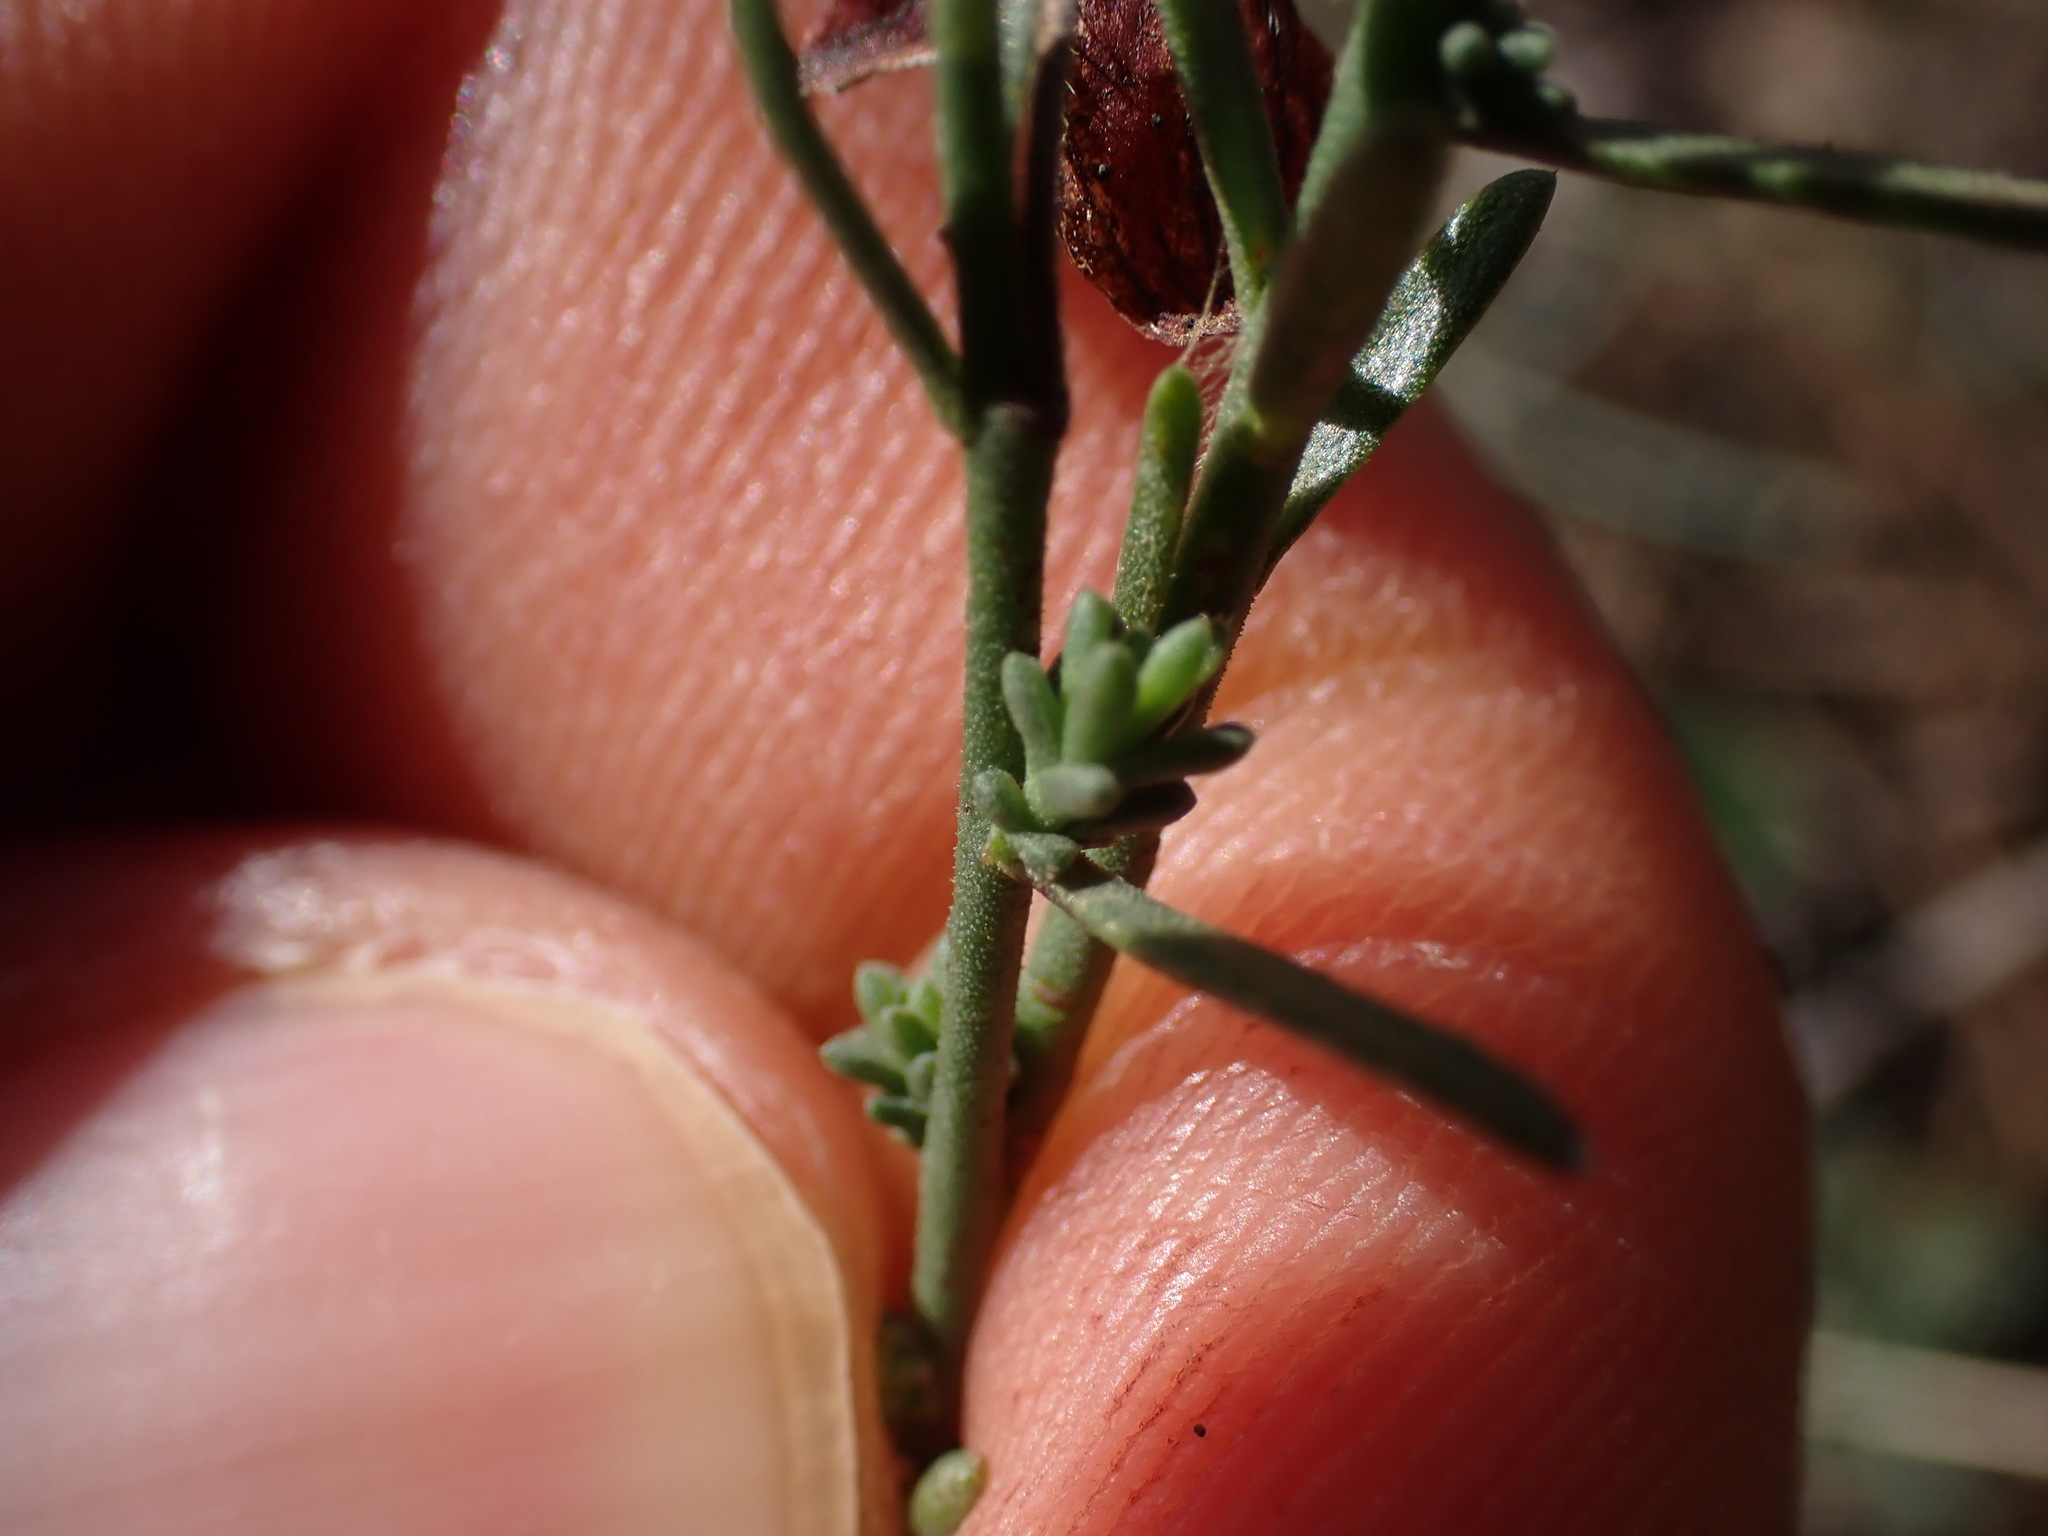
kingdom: Plantae
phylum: Tracheophyta
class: Magnoliopsida
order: Malvales
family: Cistaceae
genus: Fumana
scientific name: Fumana ericifolia
